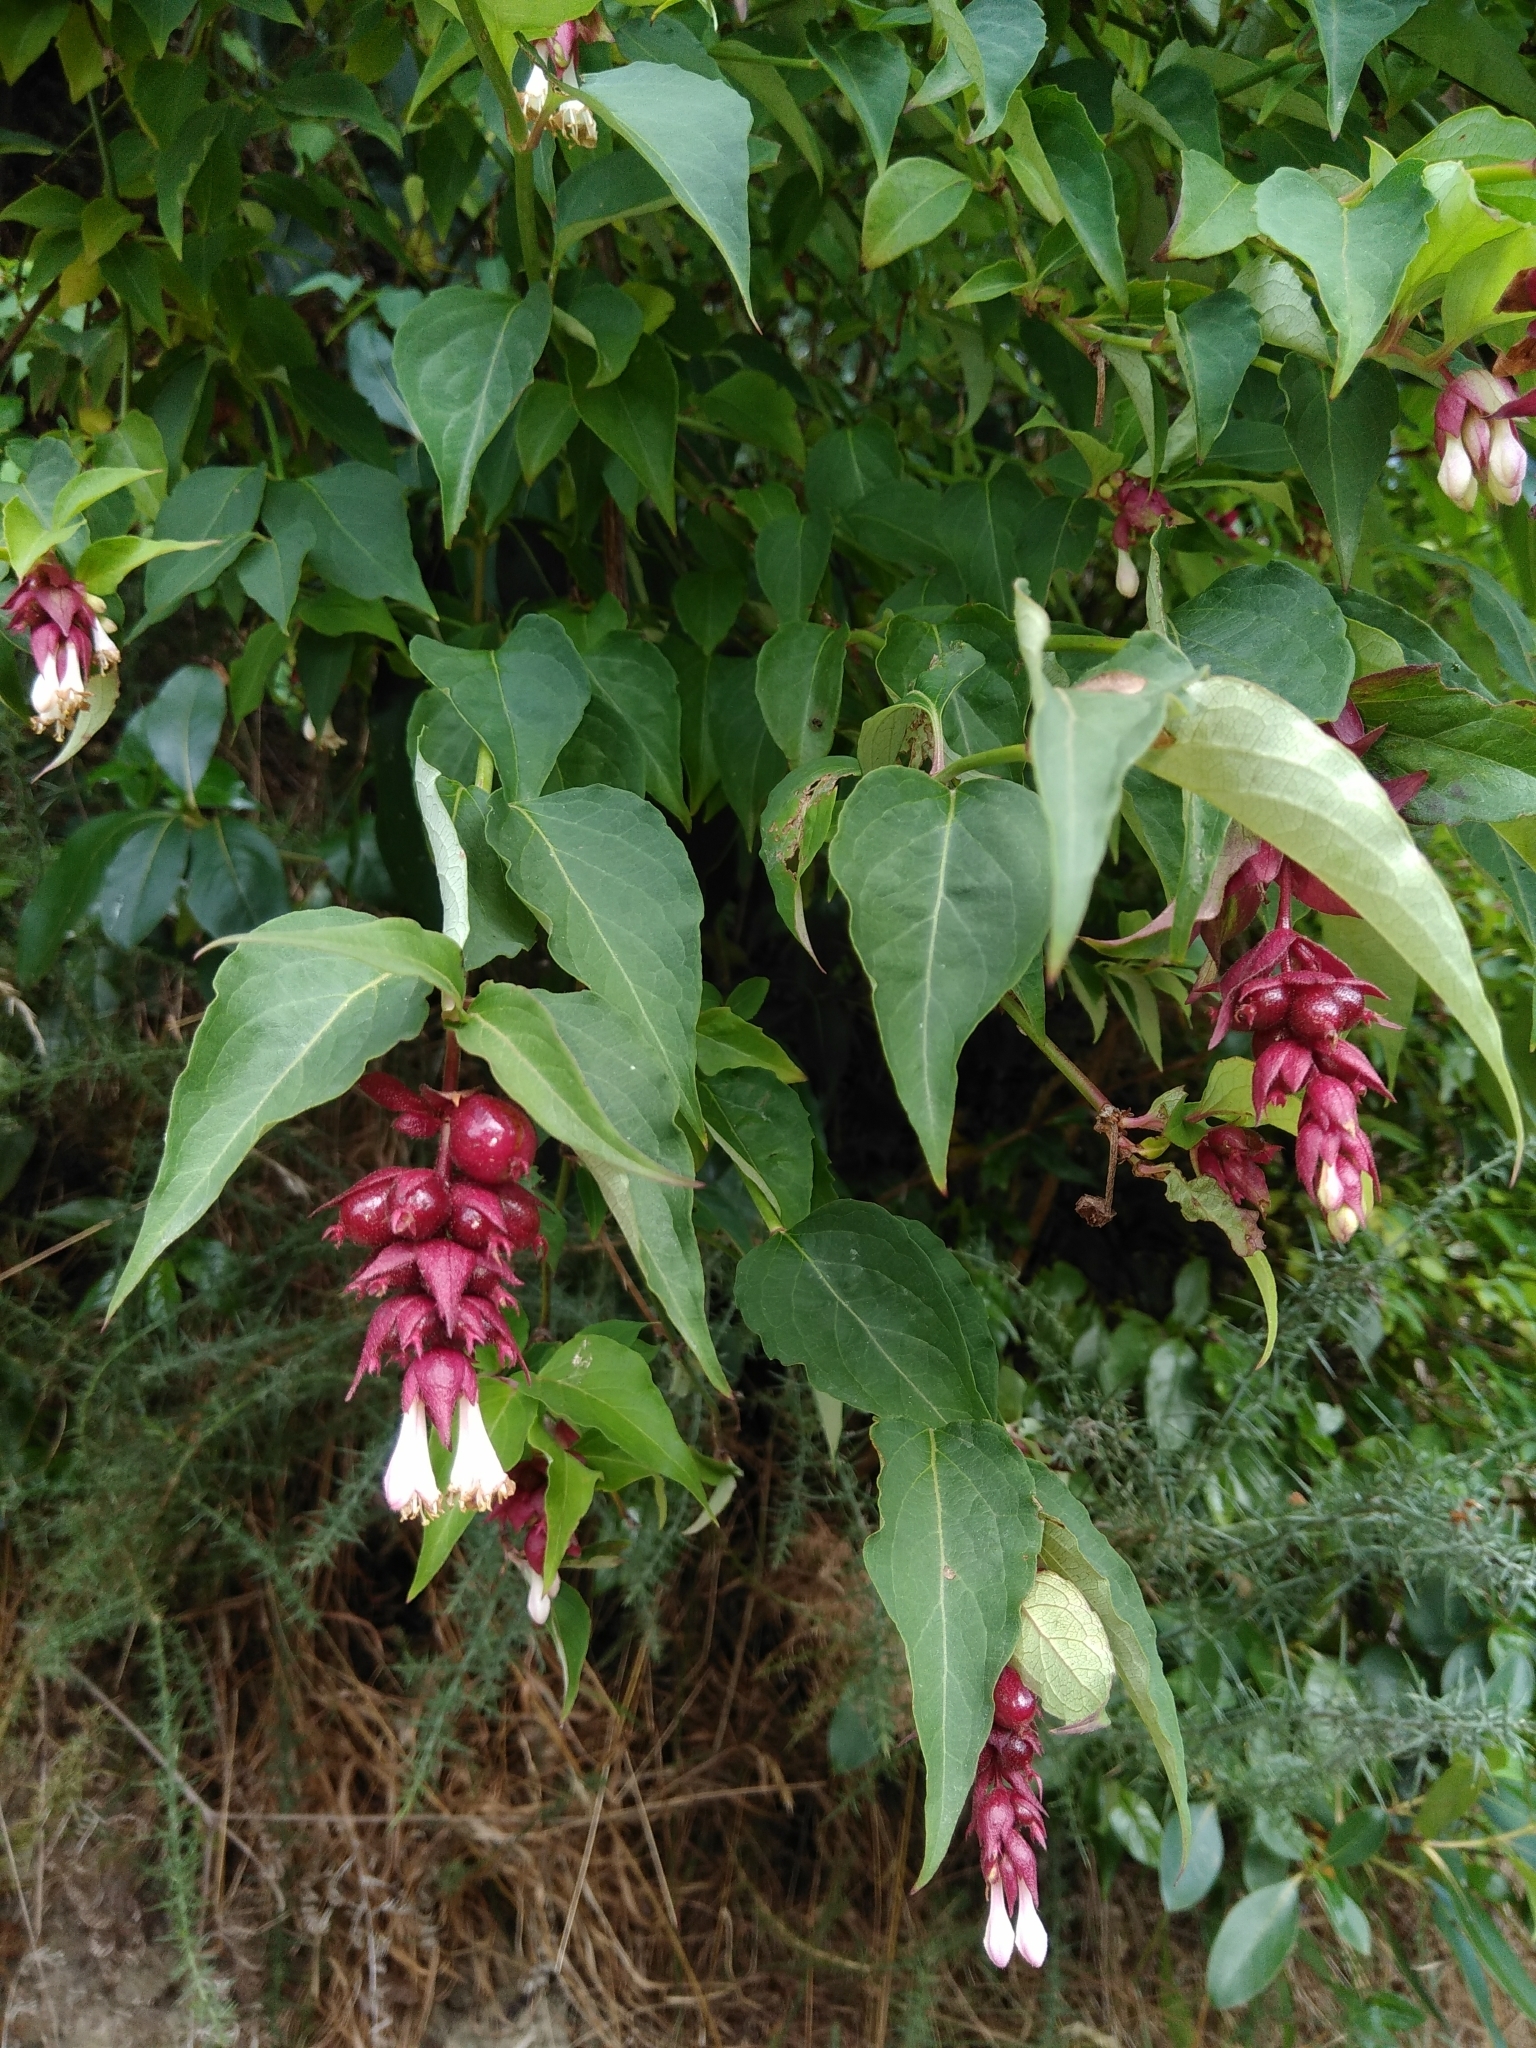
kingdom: Plantae
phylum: Tracheophyta
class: Magnoliopsida
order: Dipsacales
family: Caprifoliaceae
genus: Leycesteria
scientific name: Leycesteria formosa
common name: Himalayan honeysuckle
